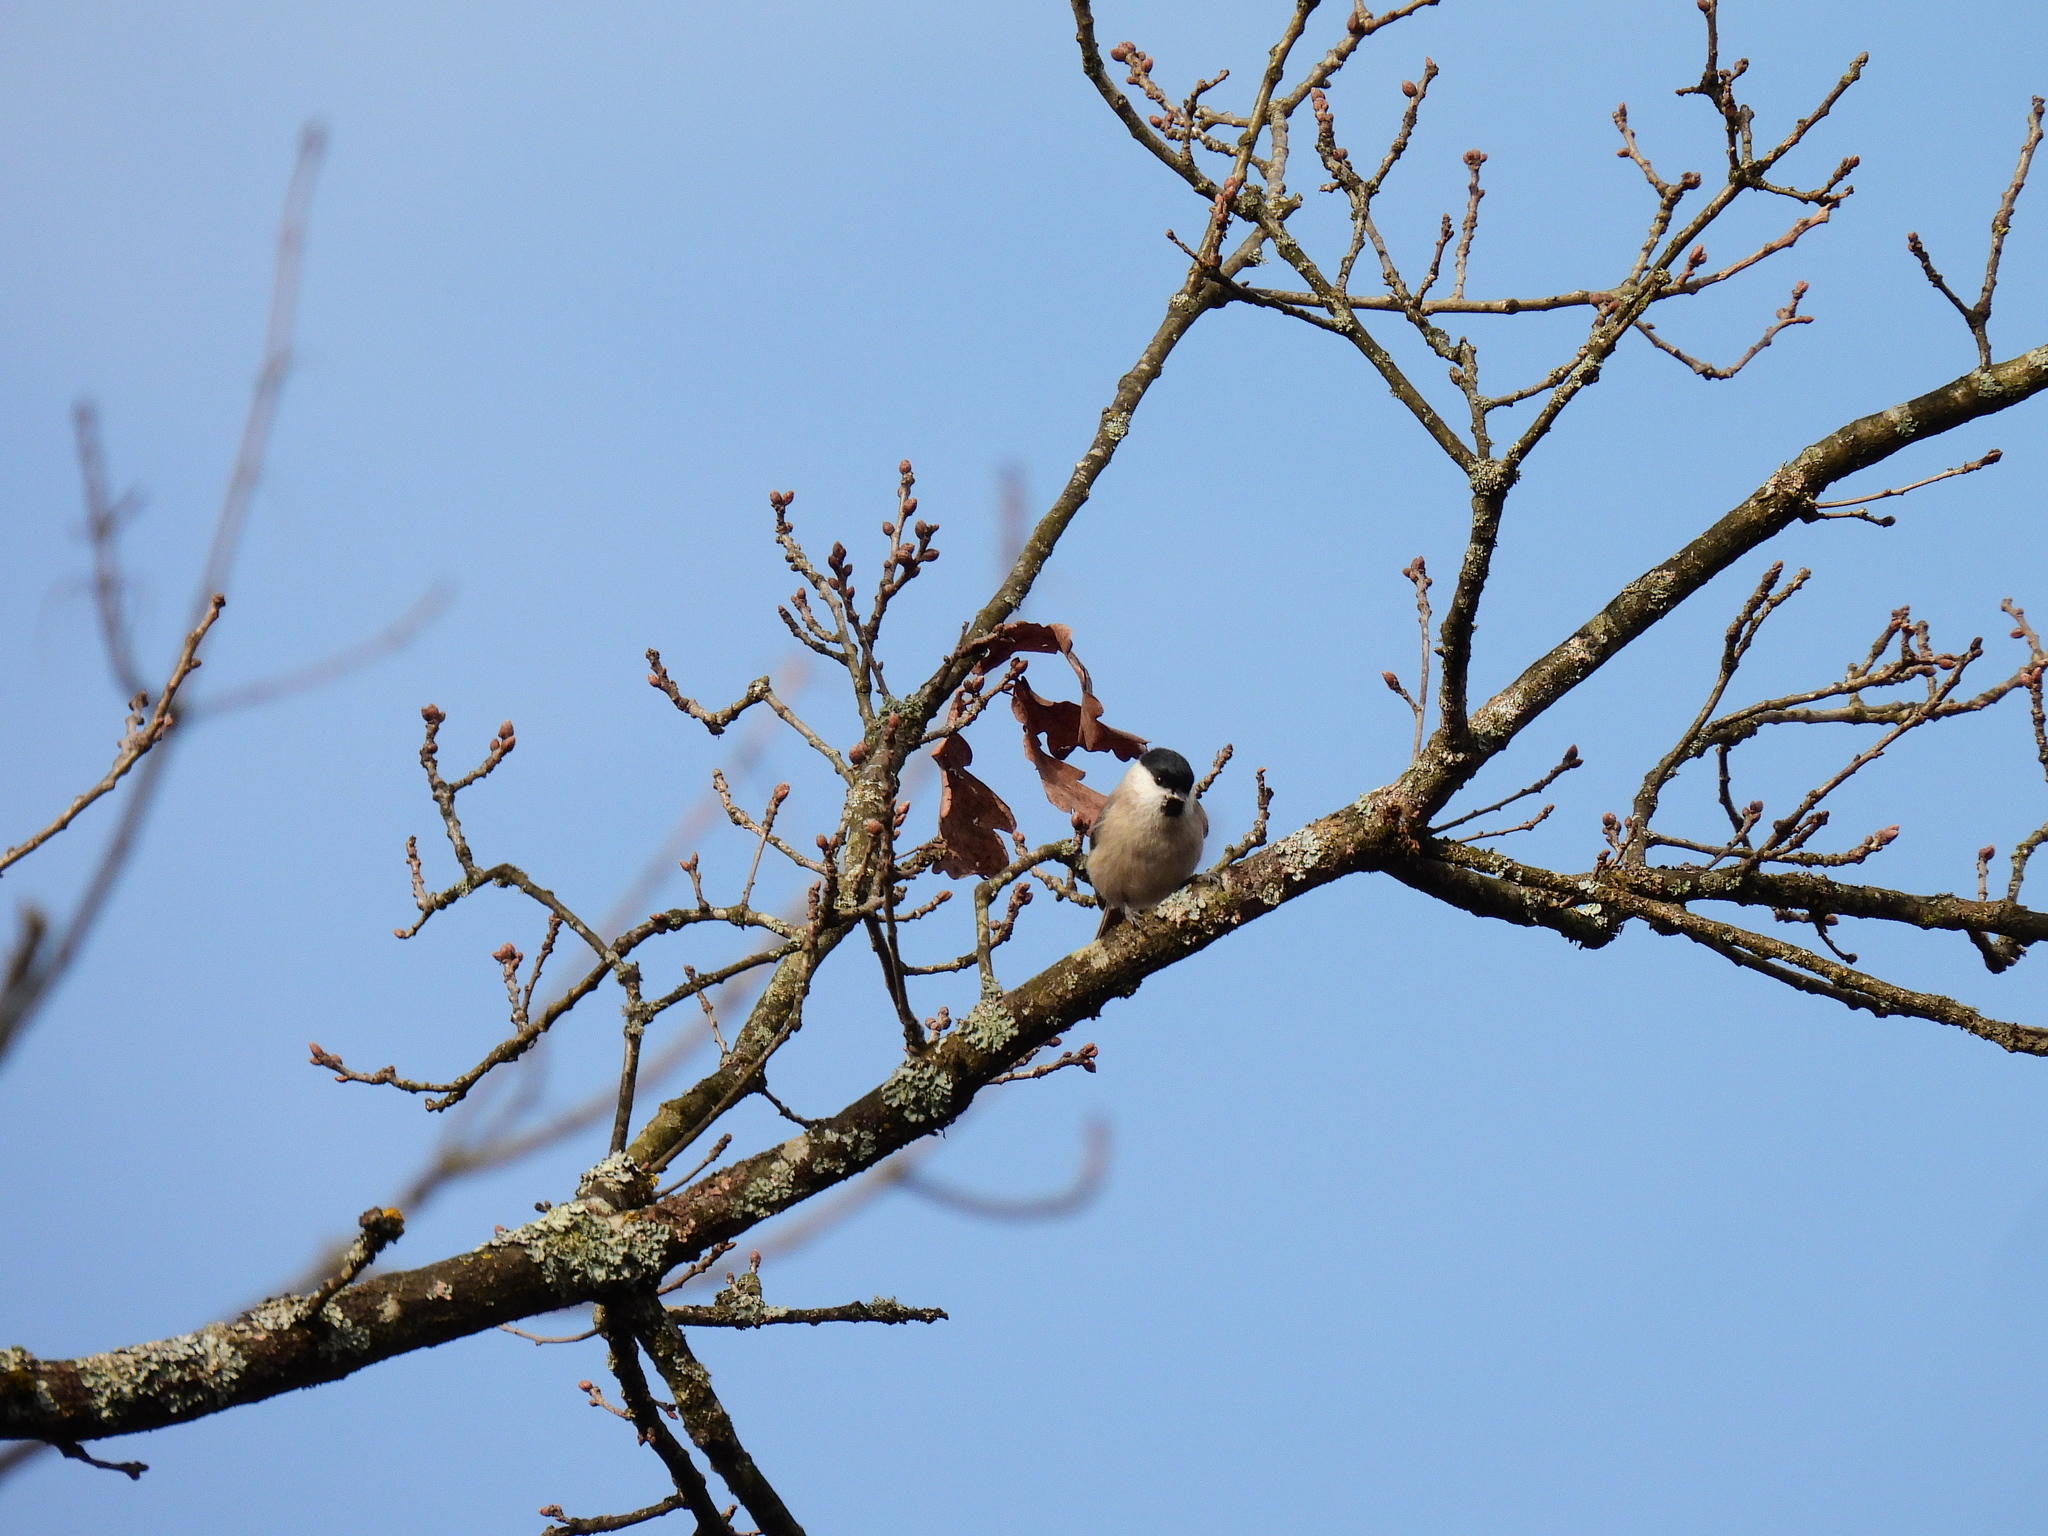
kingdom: Animalia
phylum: Chordata
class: Aves
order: Passeriformes
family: Paridae
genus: Poecile
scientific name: Poecile palustris
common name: Marsh tit
